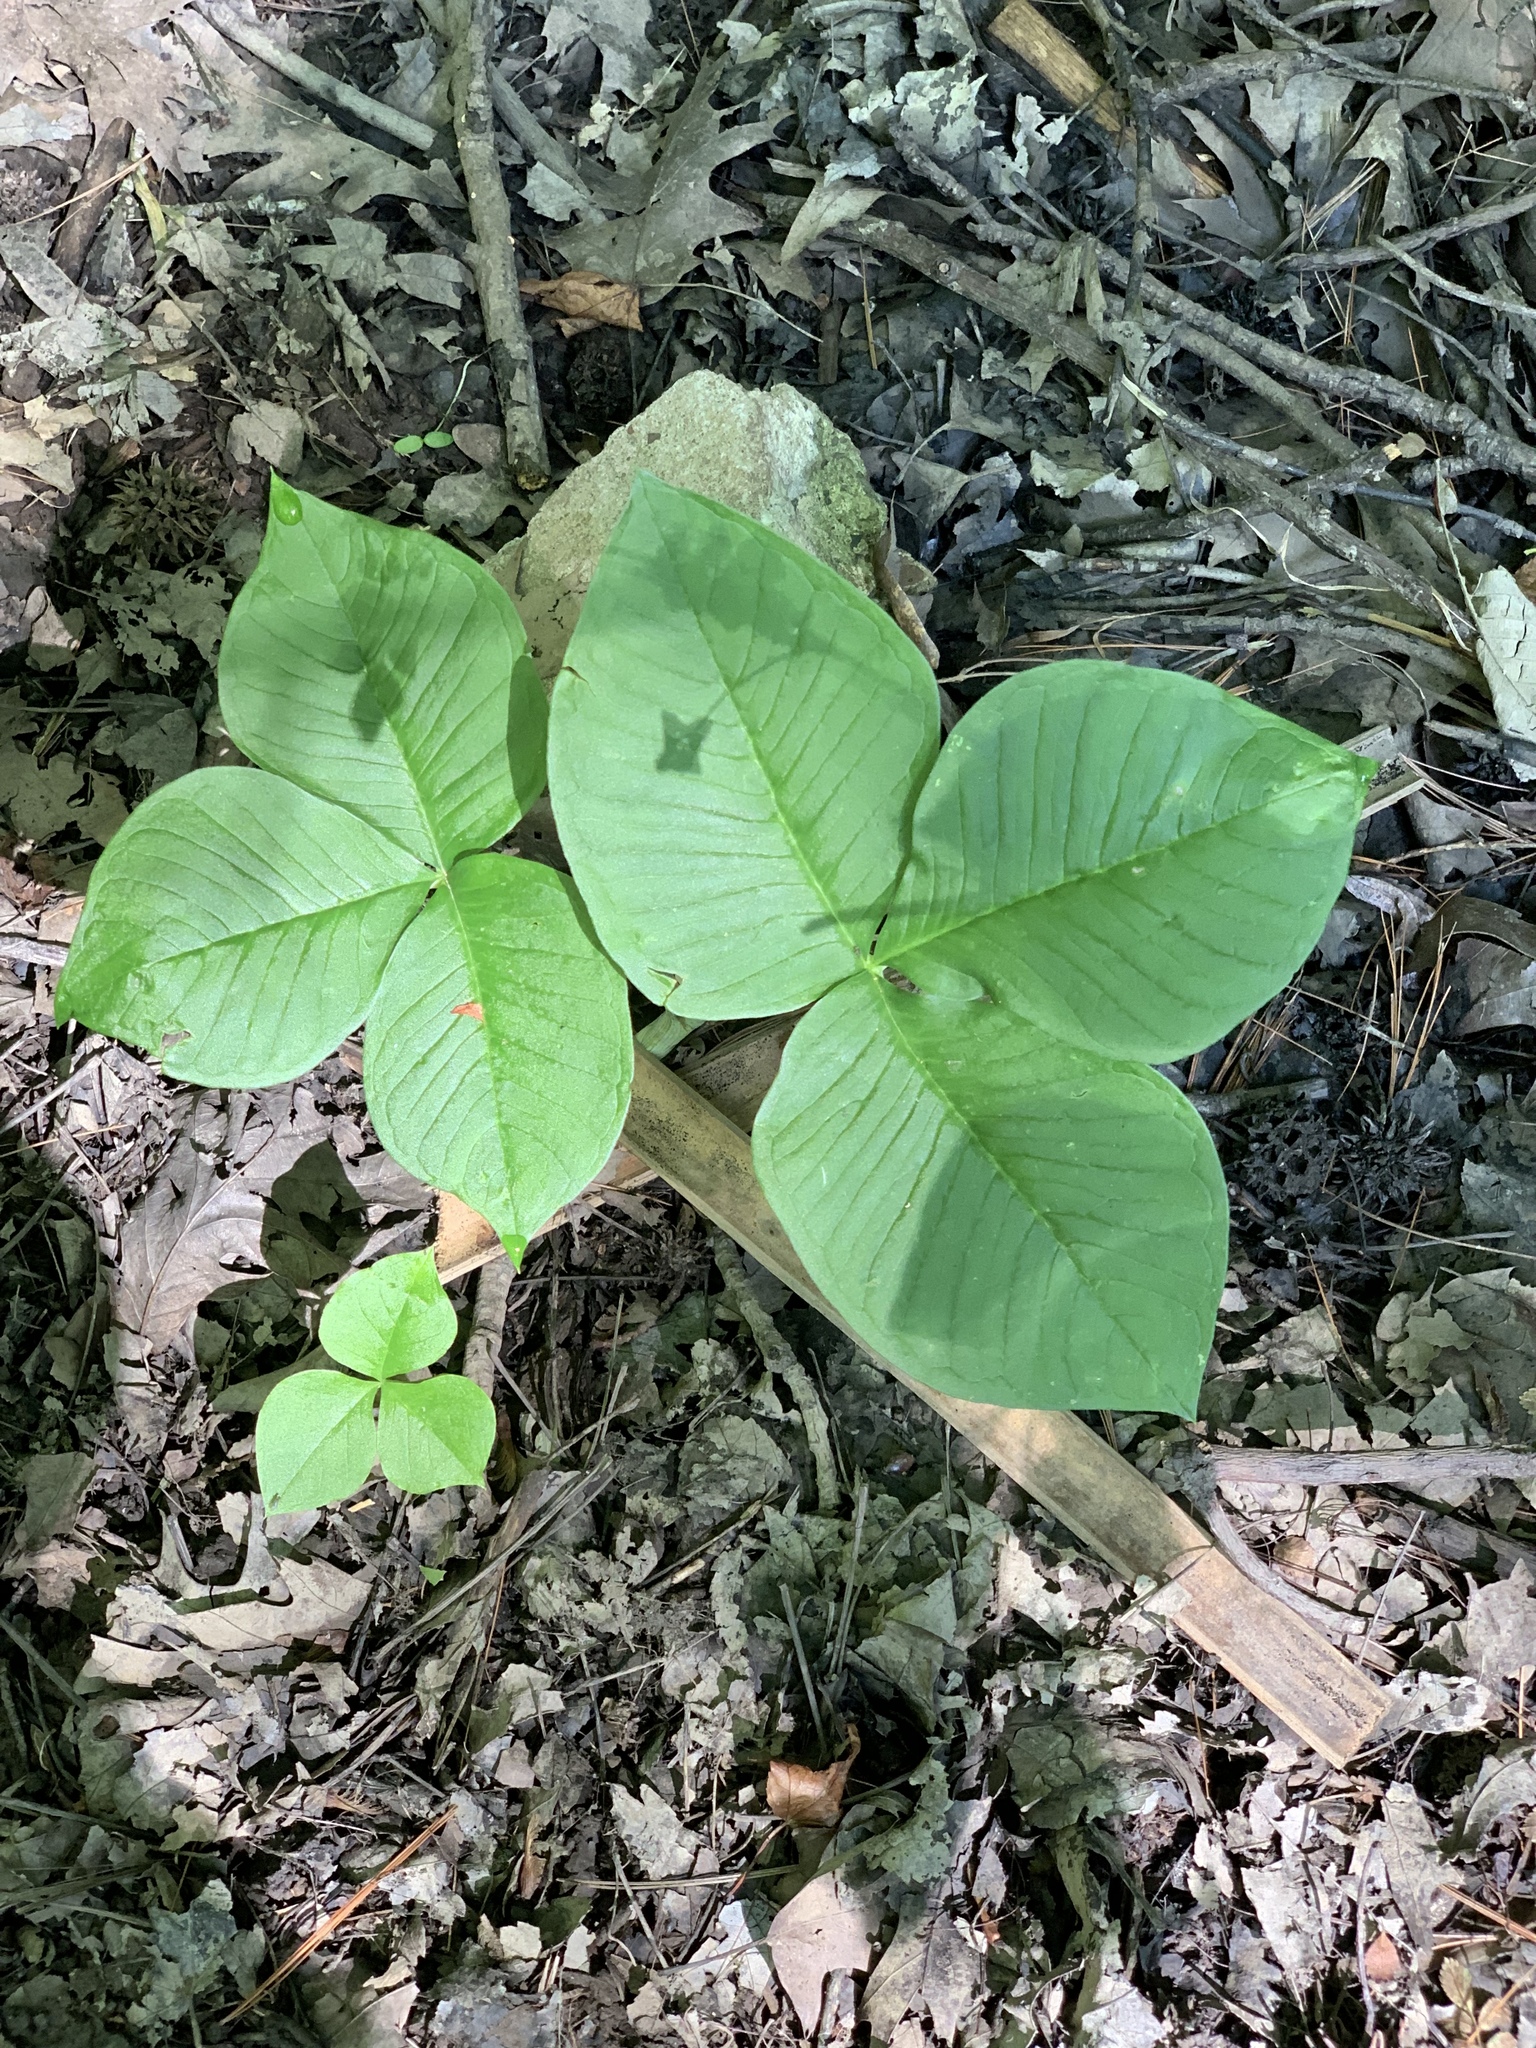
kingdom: Plantae
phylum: Tracheophyta
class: Liliopsida
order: Alismatales
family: Araceae
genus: Arisaema
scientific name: Arisaema triphyllum
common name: Jack-in-the-pulpit
